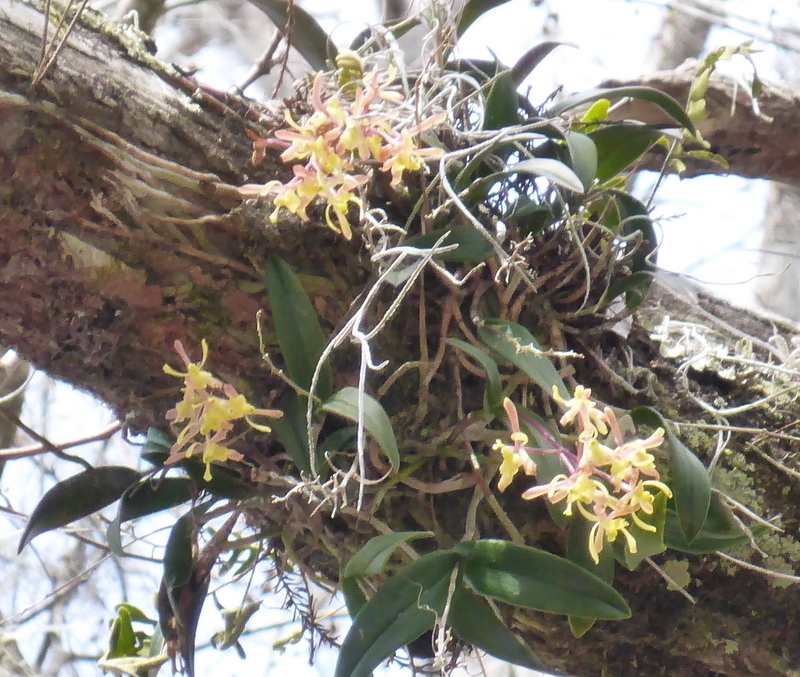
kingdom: Plantae
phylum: Tracheophyta
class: Liliopsida
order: Asparagales
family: Orchidaceae
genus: Epidendrum
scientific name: Epidendrum conopseum
